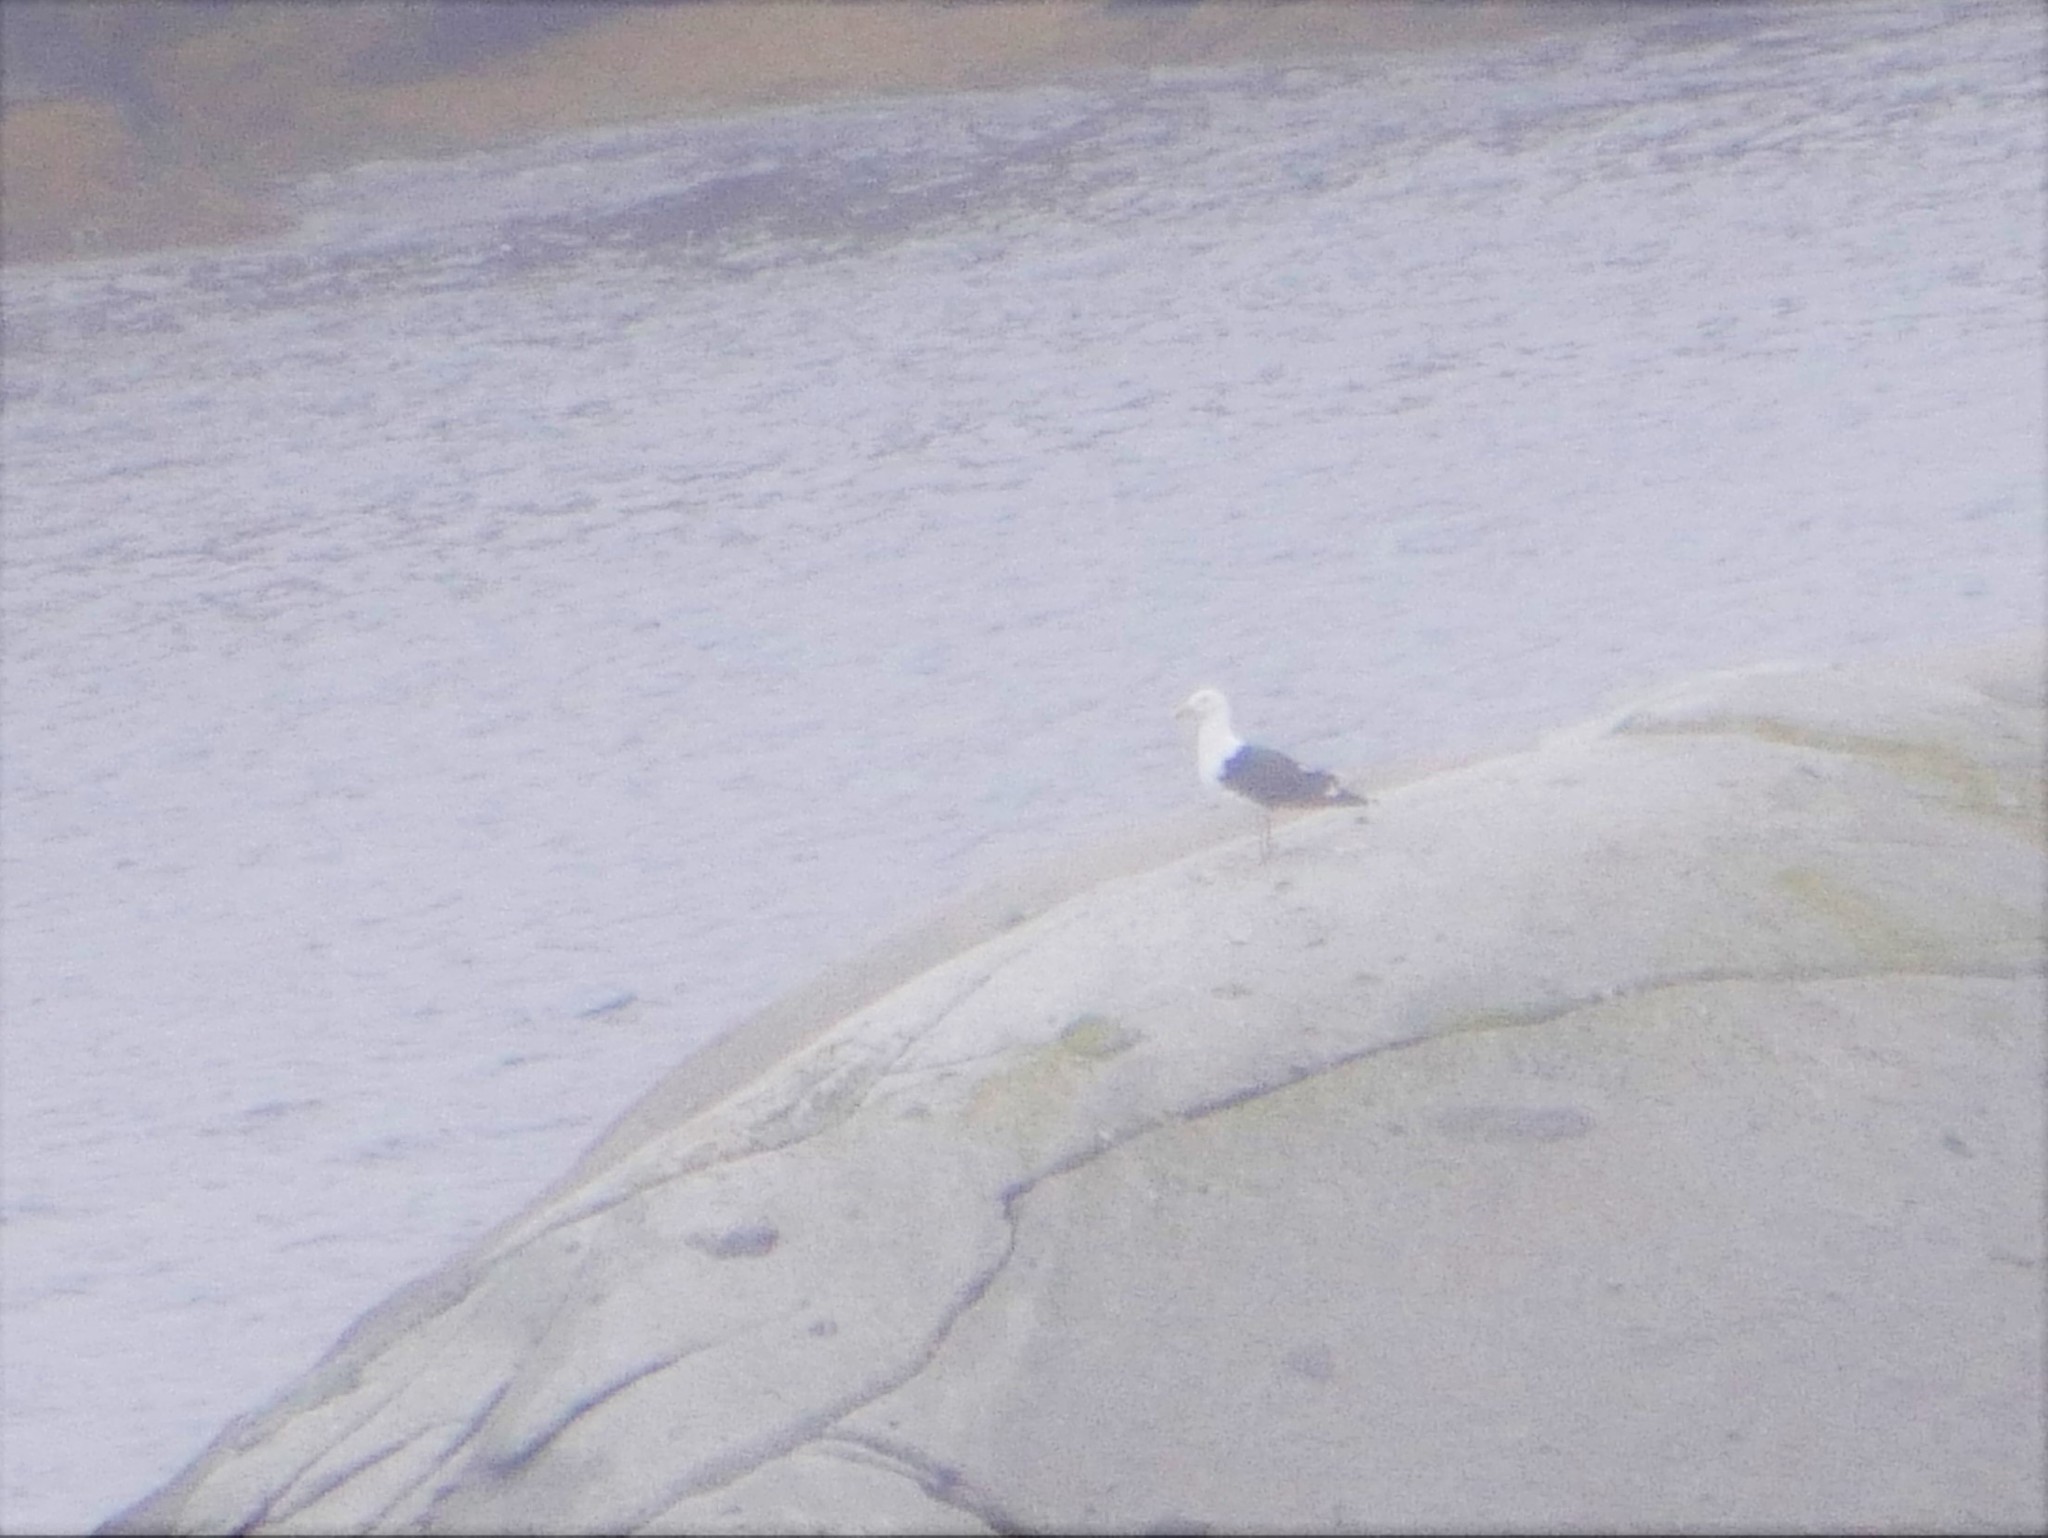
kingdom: Animalia
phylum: Chordata
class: Aves
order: Charadriiformes
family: Laridae
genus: Larus
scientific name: Larus marinus
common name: Great black-backed gull
